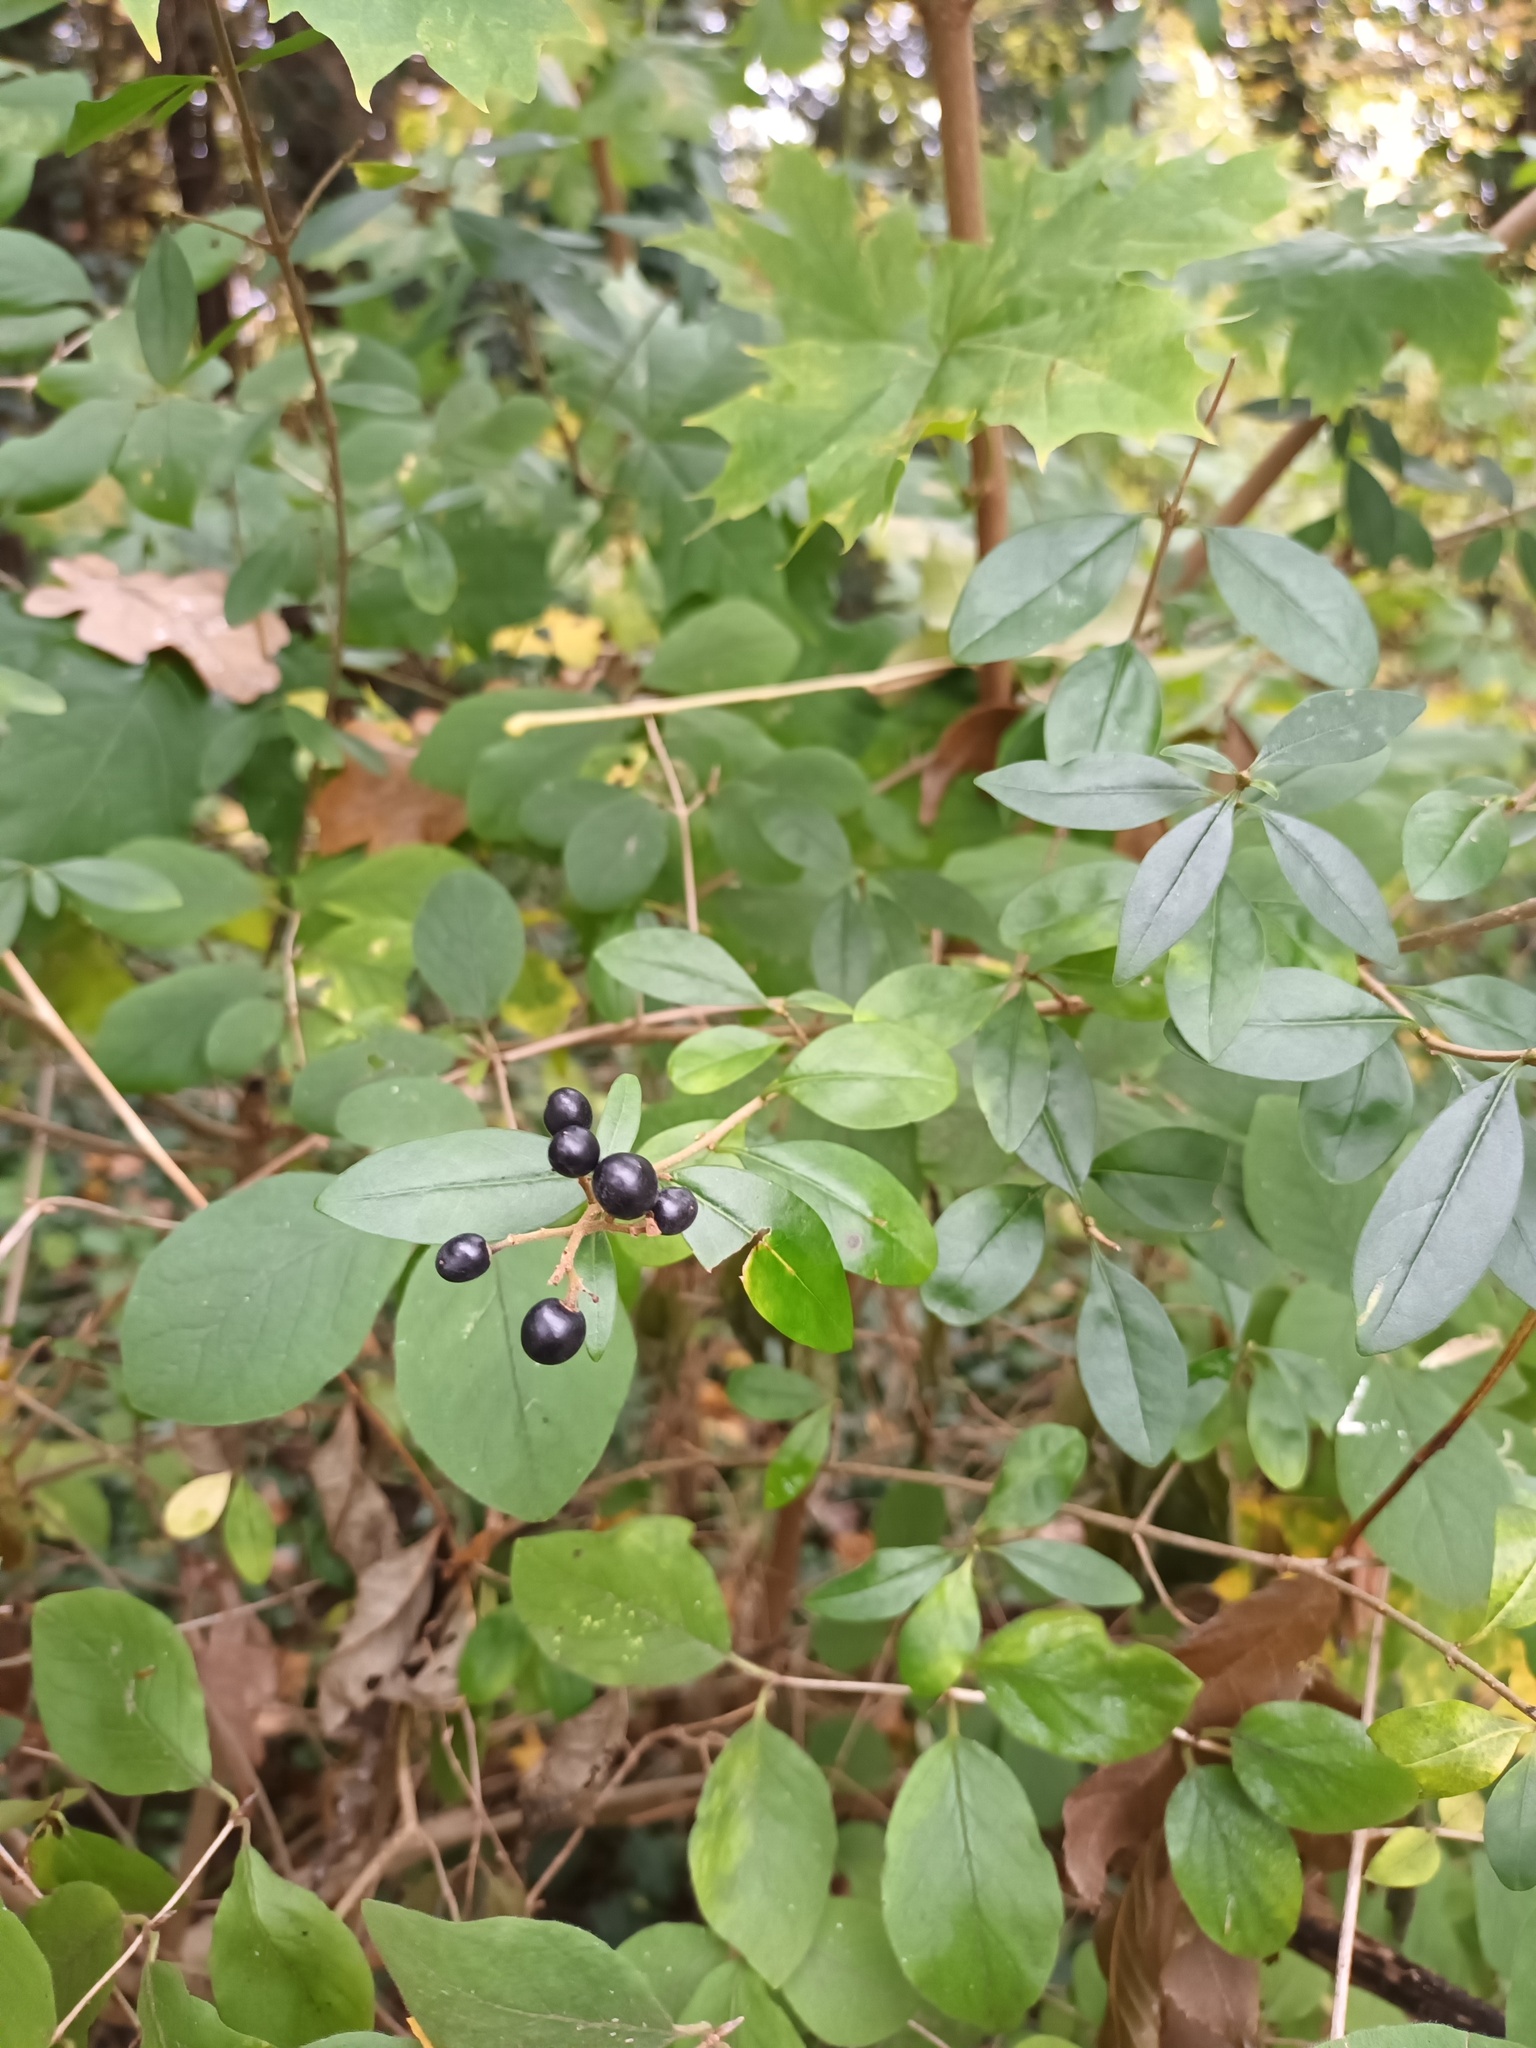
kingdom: Plantae
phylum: Tracheophyta
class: Magnoliopsida
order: Lamiales
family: Oleaceae
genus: Ligustrum
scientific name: Ligustrum vulgare
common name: Wild privet
